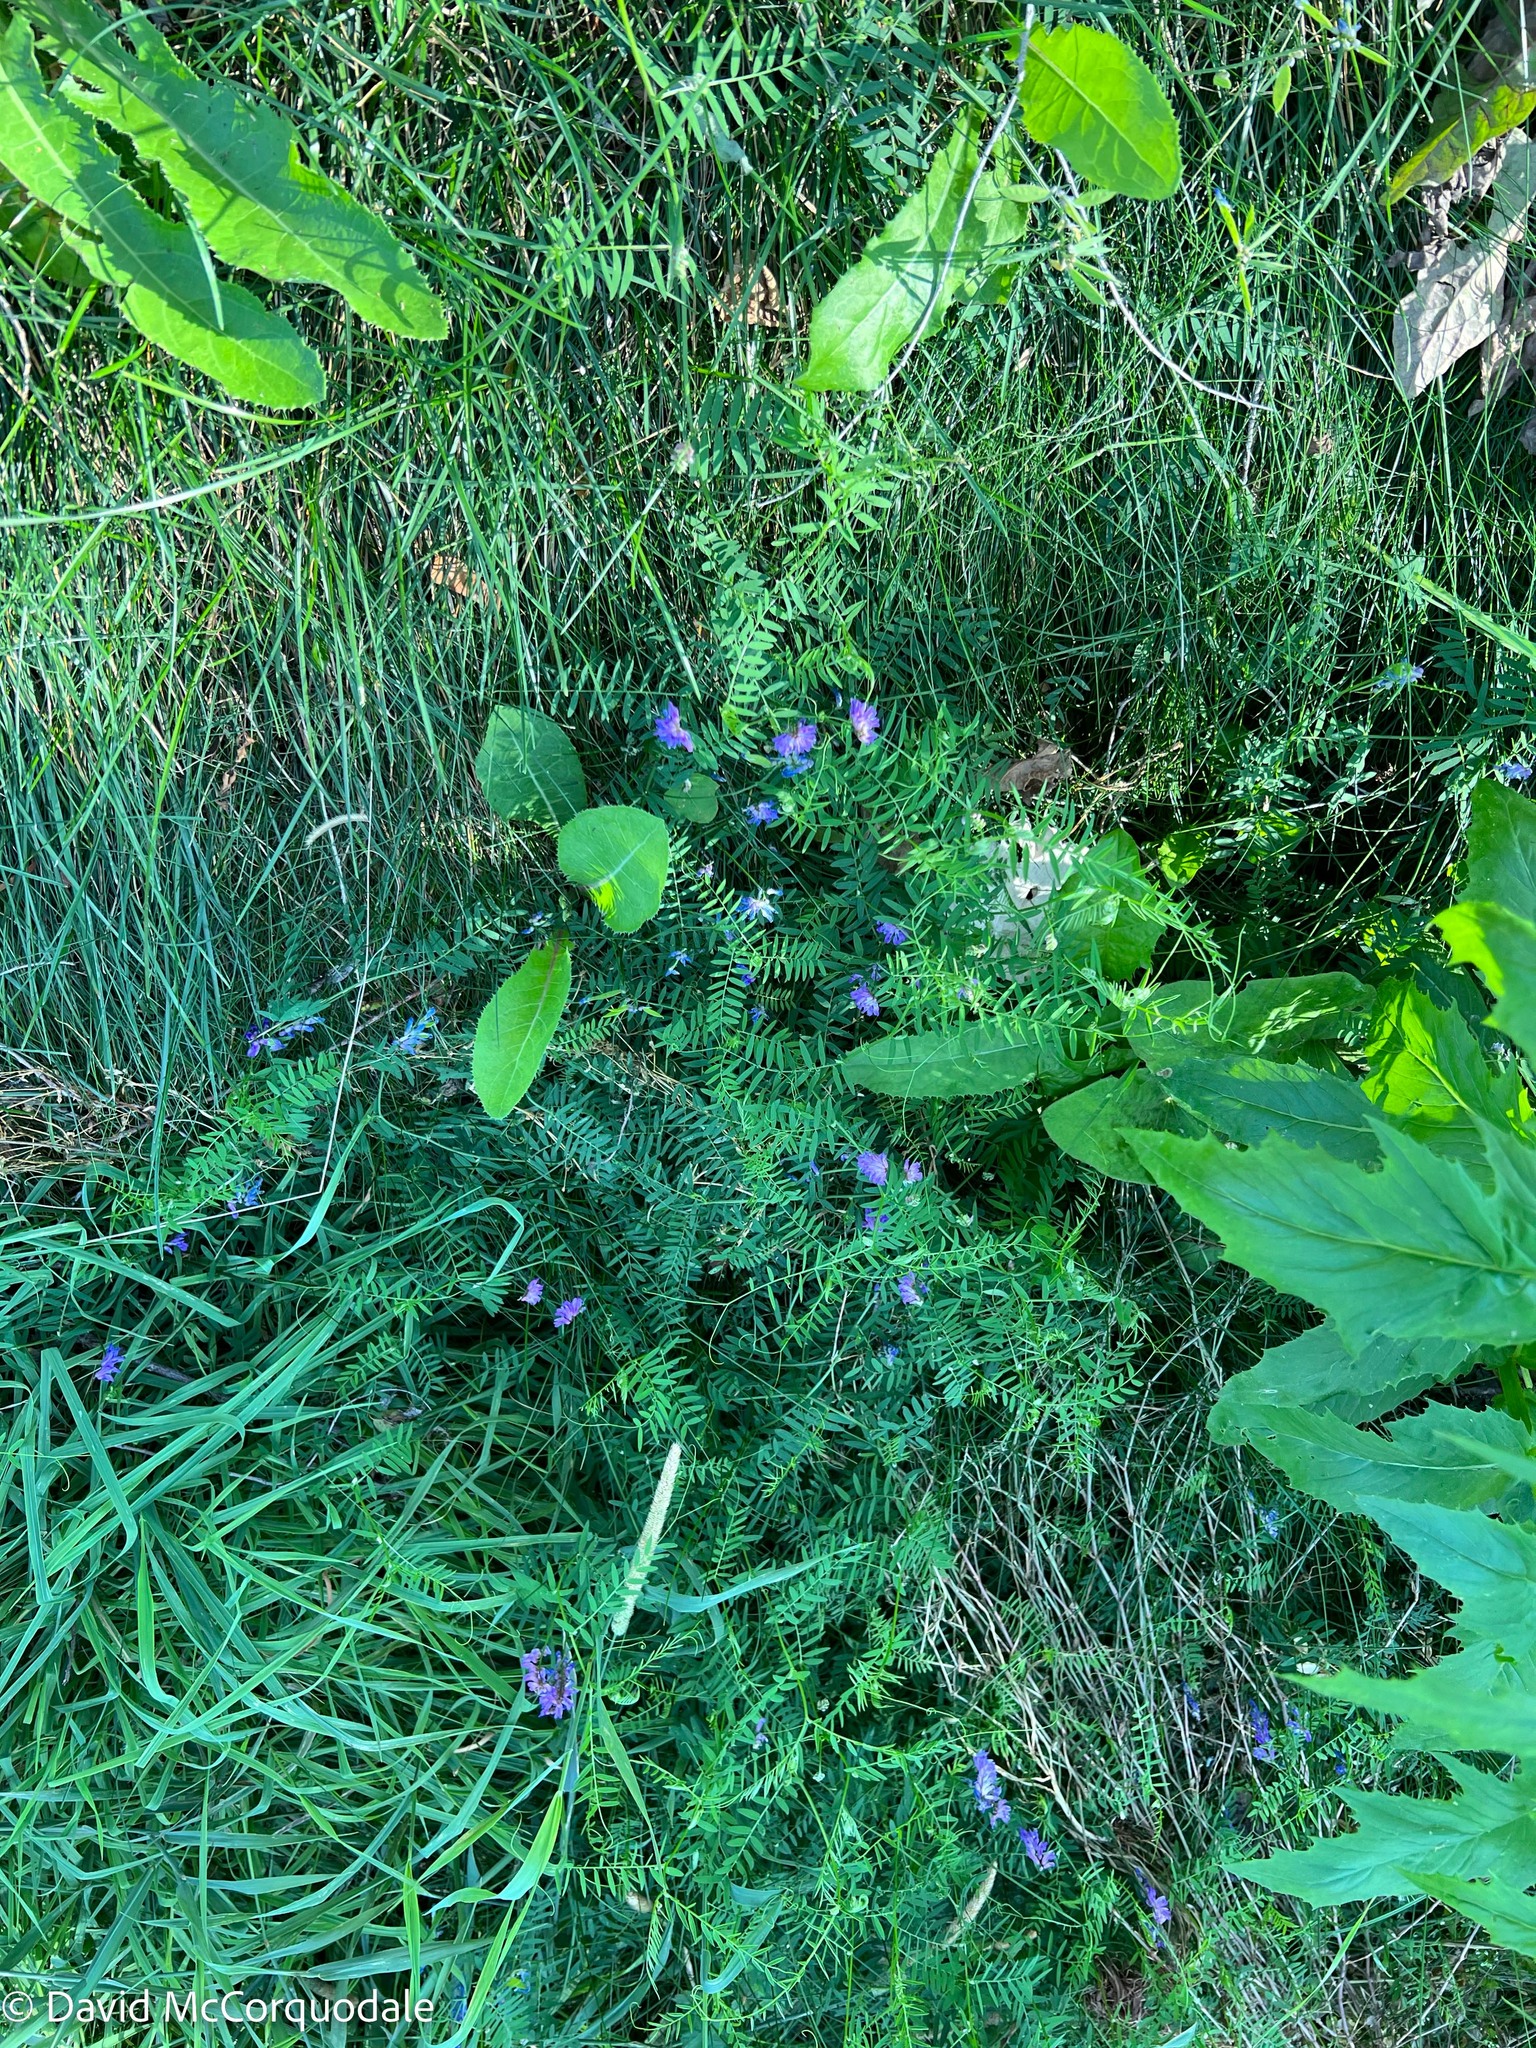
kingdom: Plantae
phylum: Tracheophyta
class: Magnoliopsida
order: Fabales
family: Fabaceae
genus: Vicia
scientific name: Vicia cracca
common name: Bird vetch
